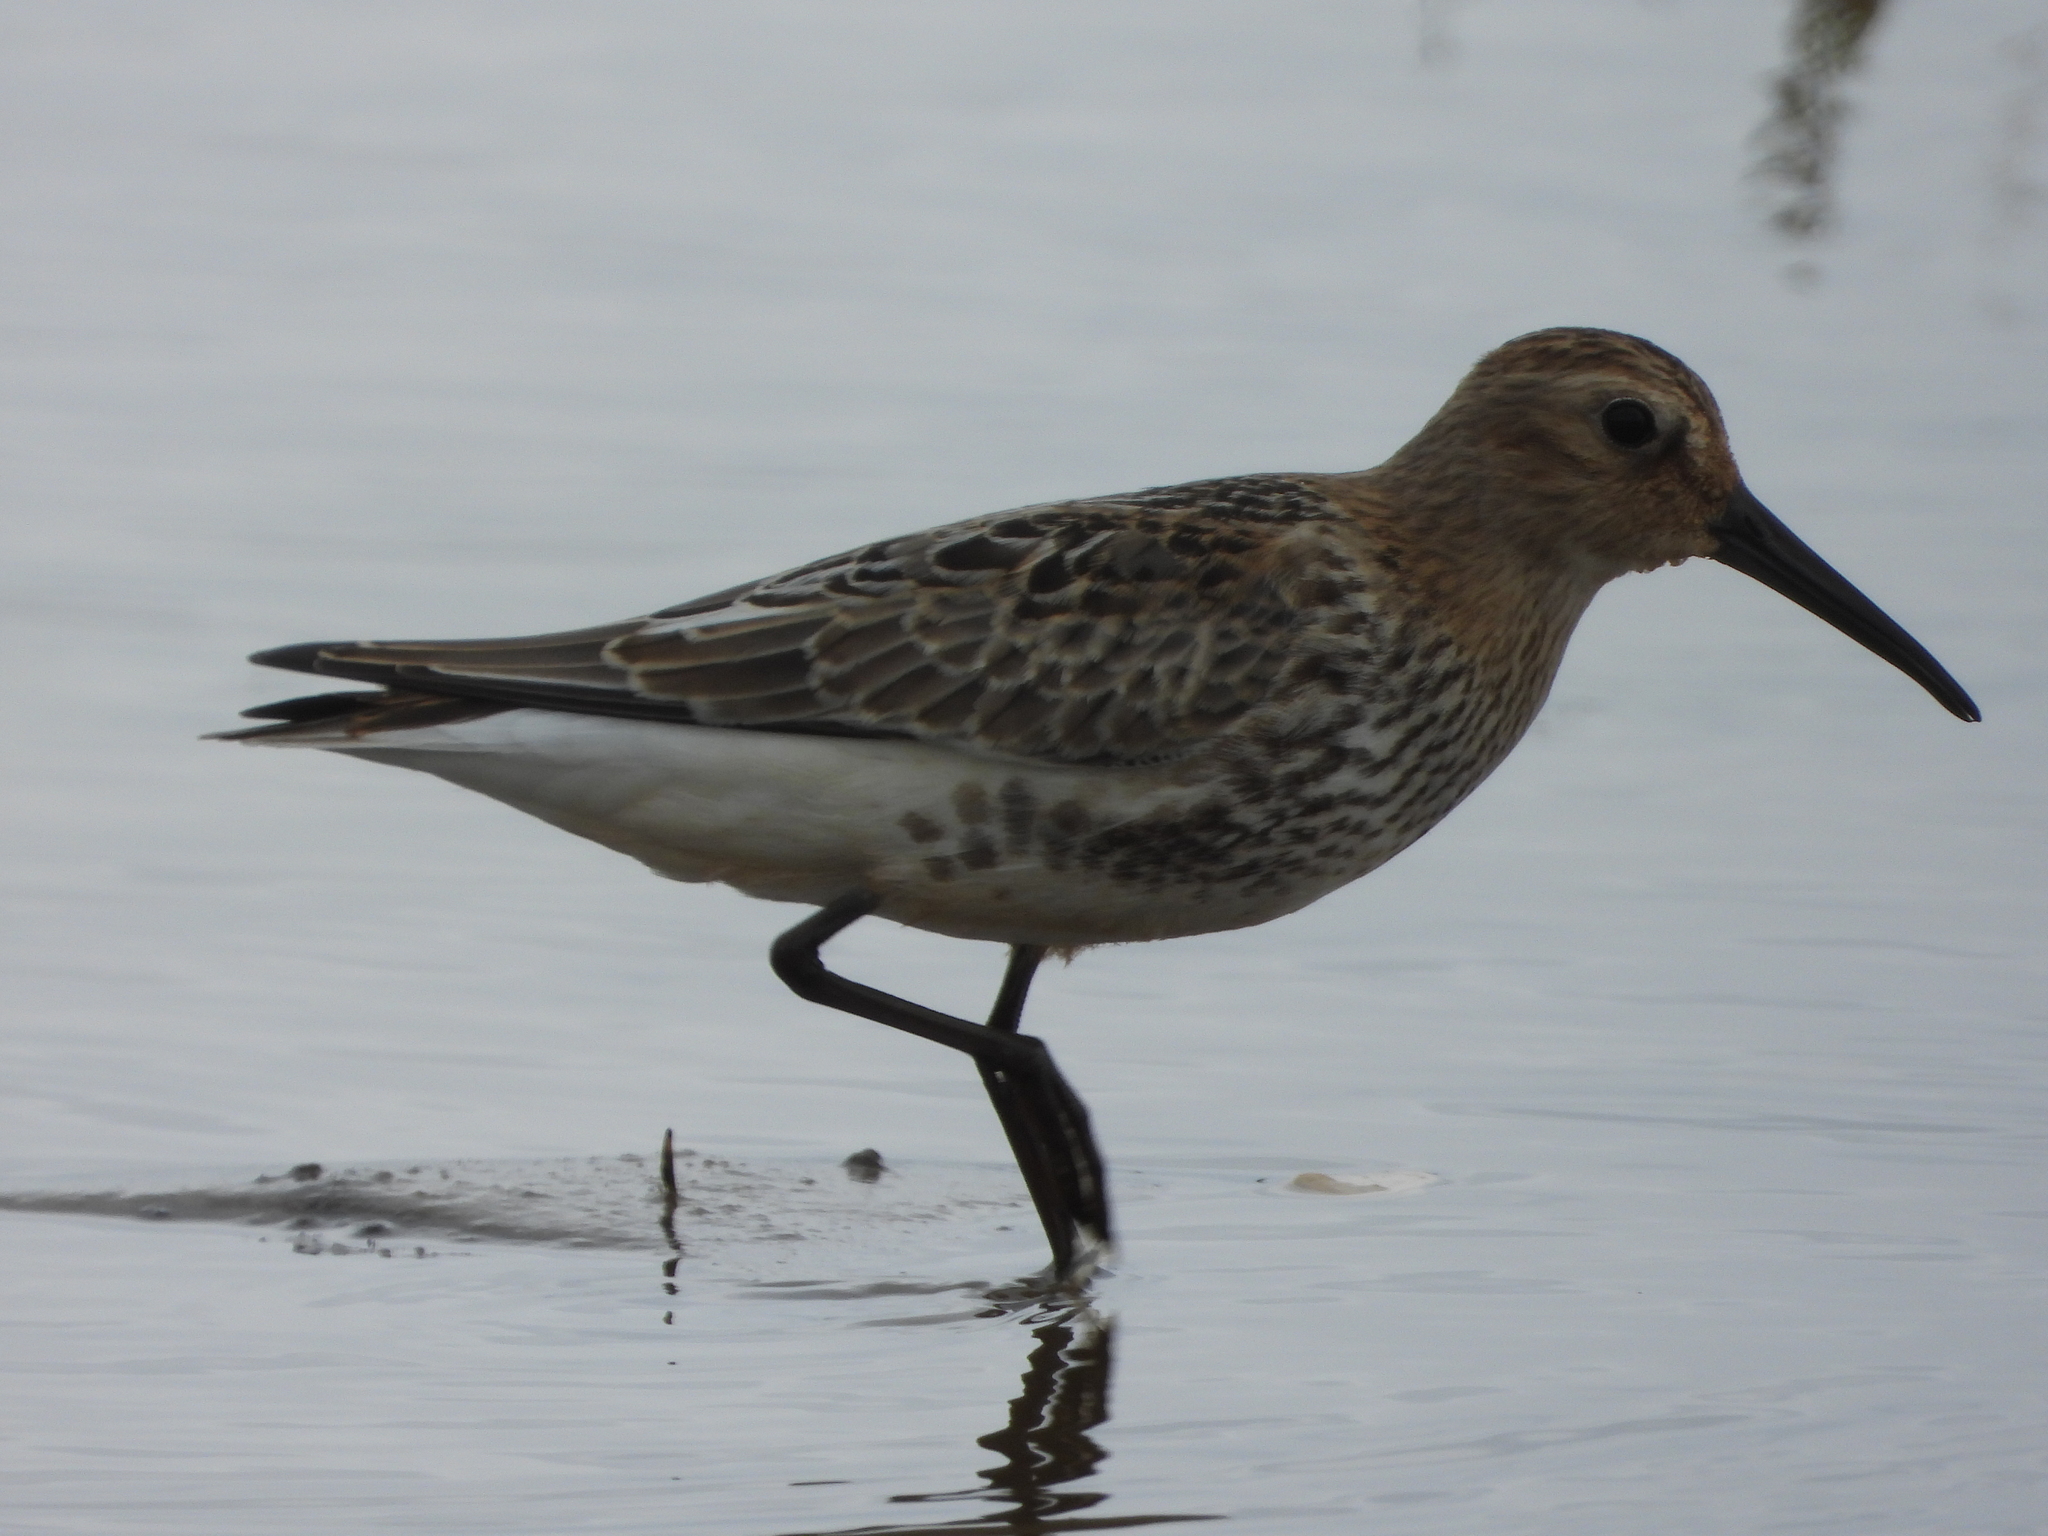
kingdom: Animalia
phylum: Chordata
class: Aves
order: Charadriiformes
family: Scolopacidae
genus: Calidris
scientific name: Calidris alpina
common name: Dunlin
